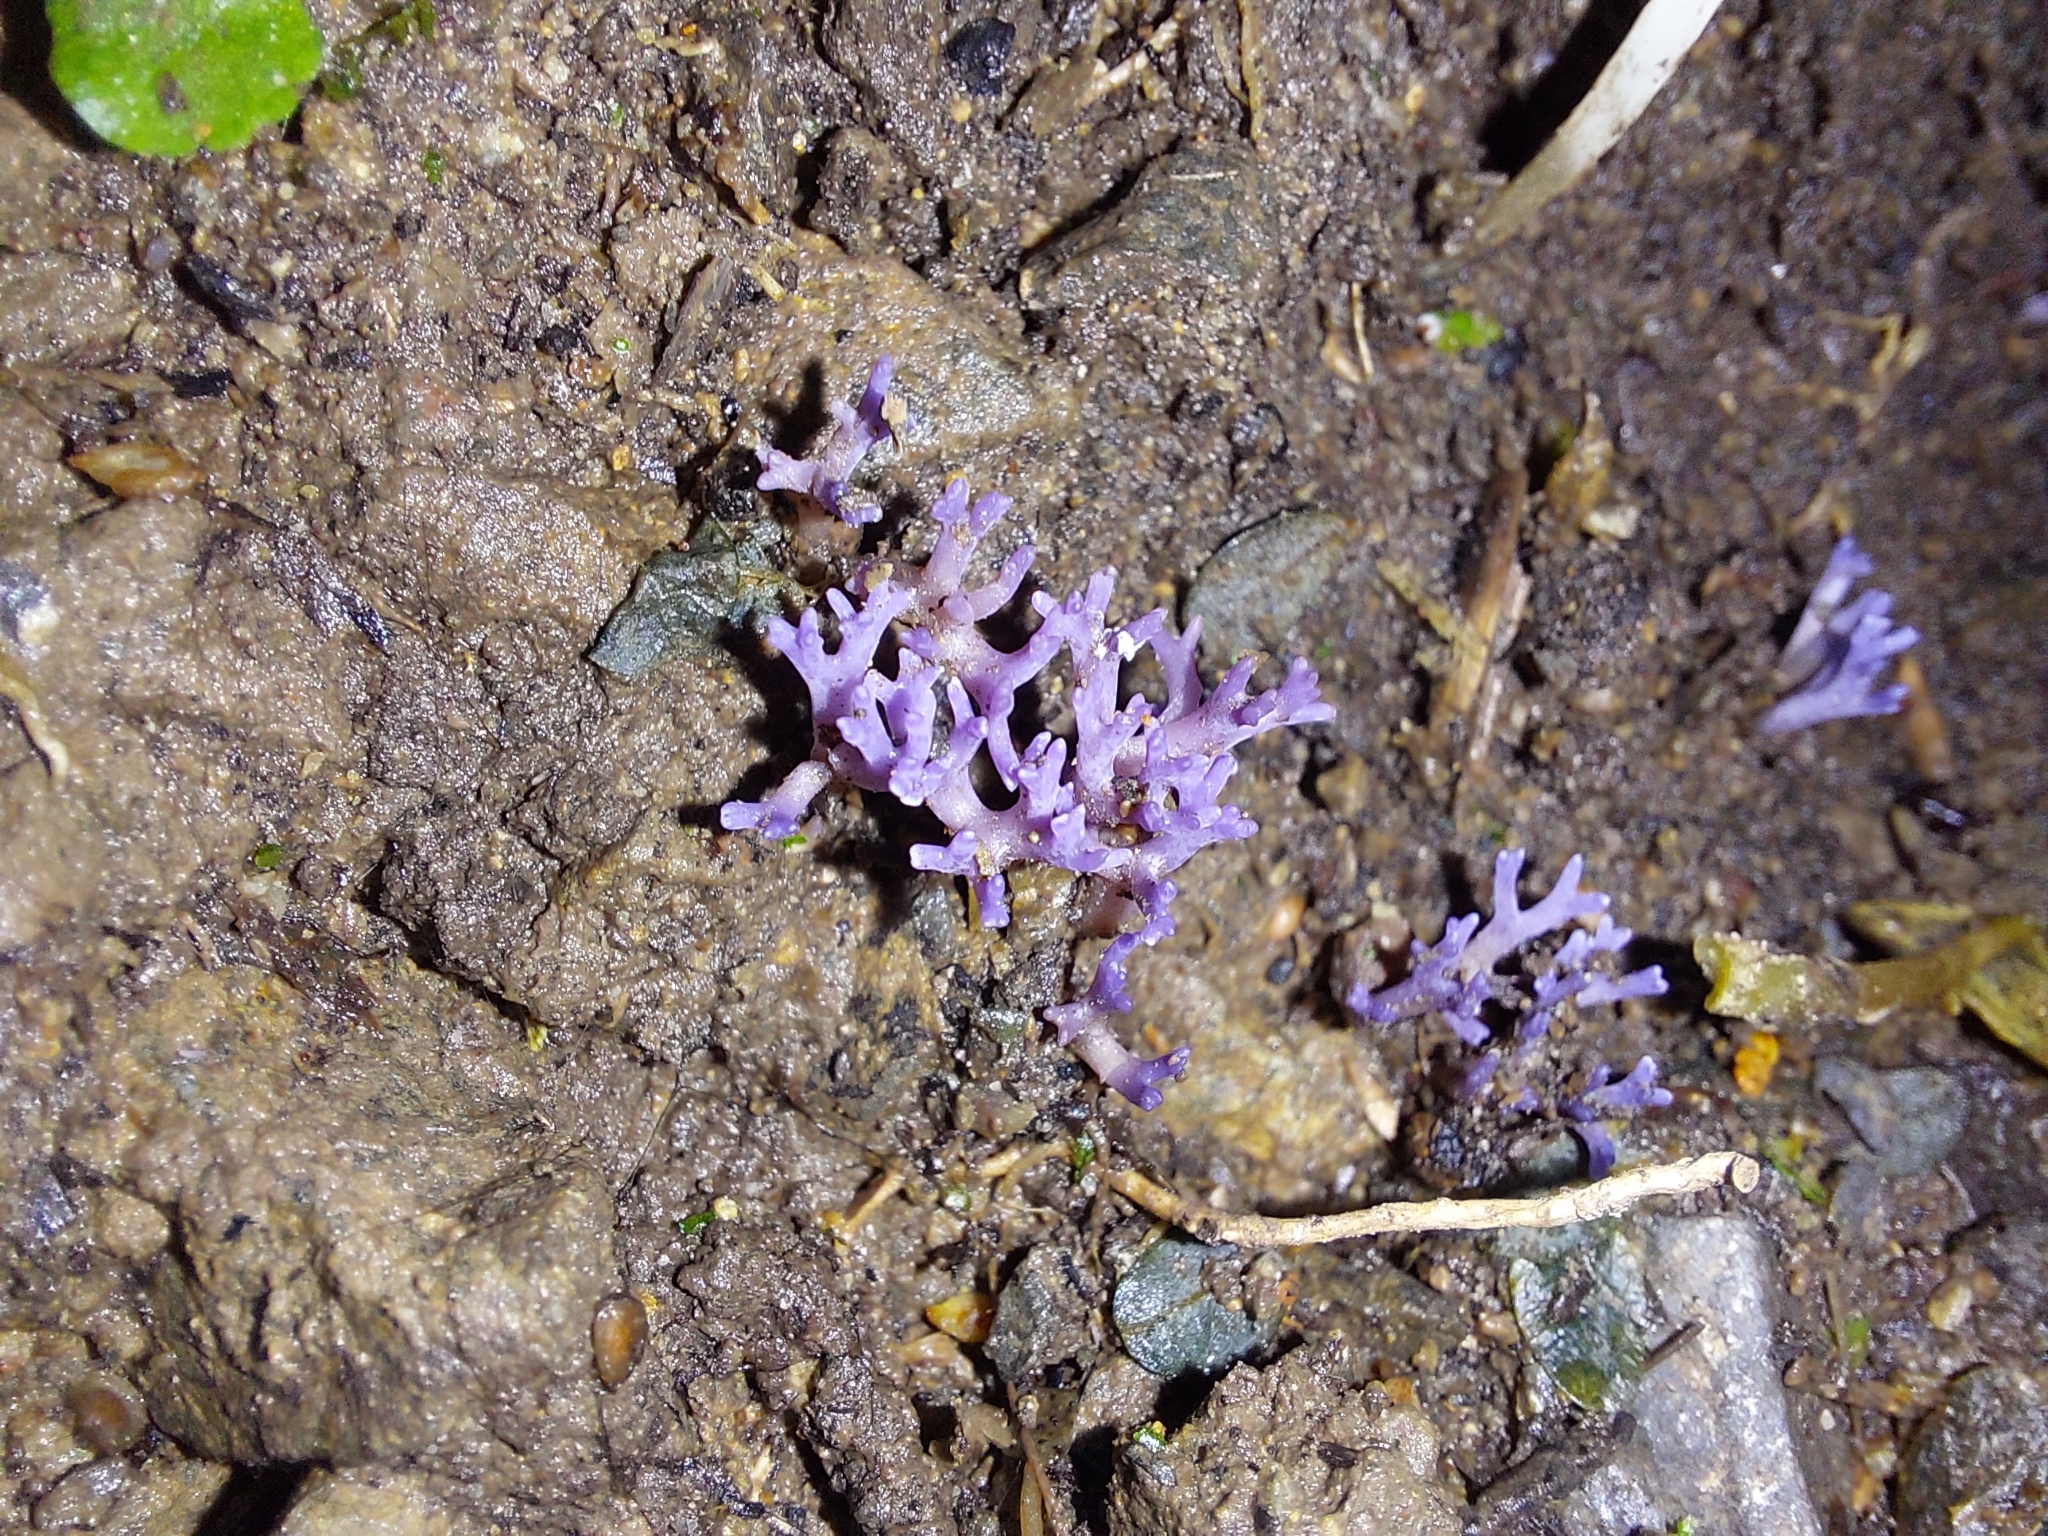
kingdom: Fungi
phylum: Basidiomycota
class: Agaricomycetes
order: Agaricales
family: Clavariaceae
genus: Ramariopsis
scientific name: Ramariopsis pulchella
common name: Lilac coral
